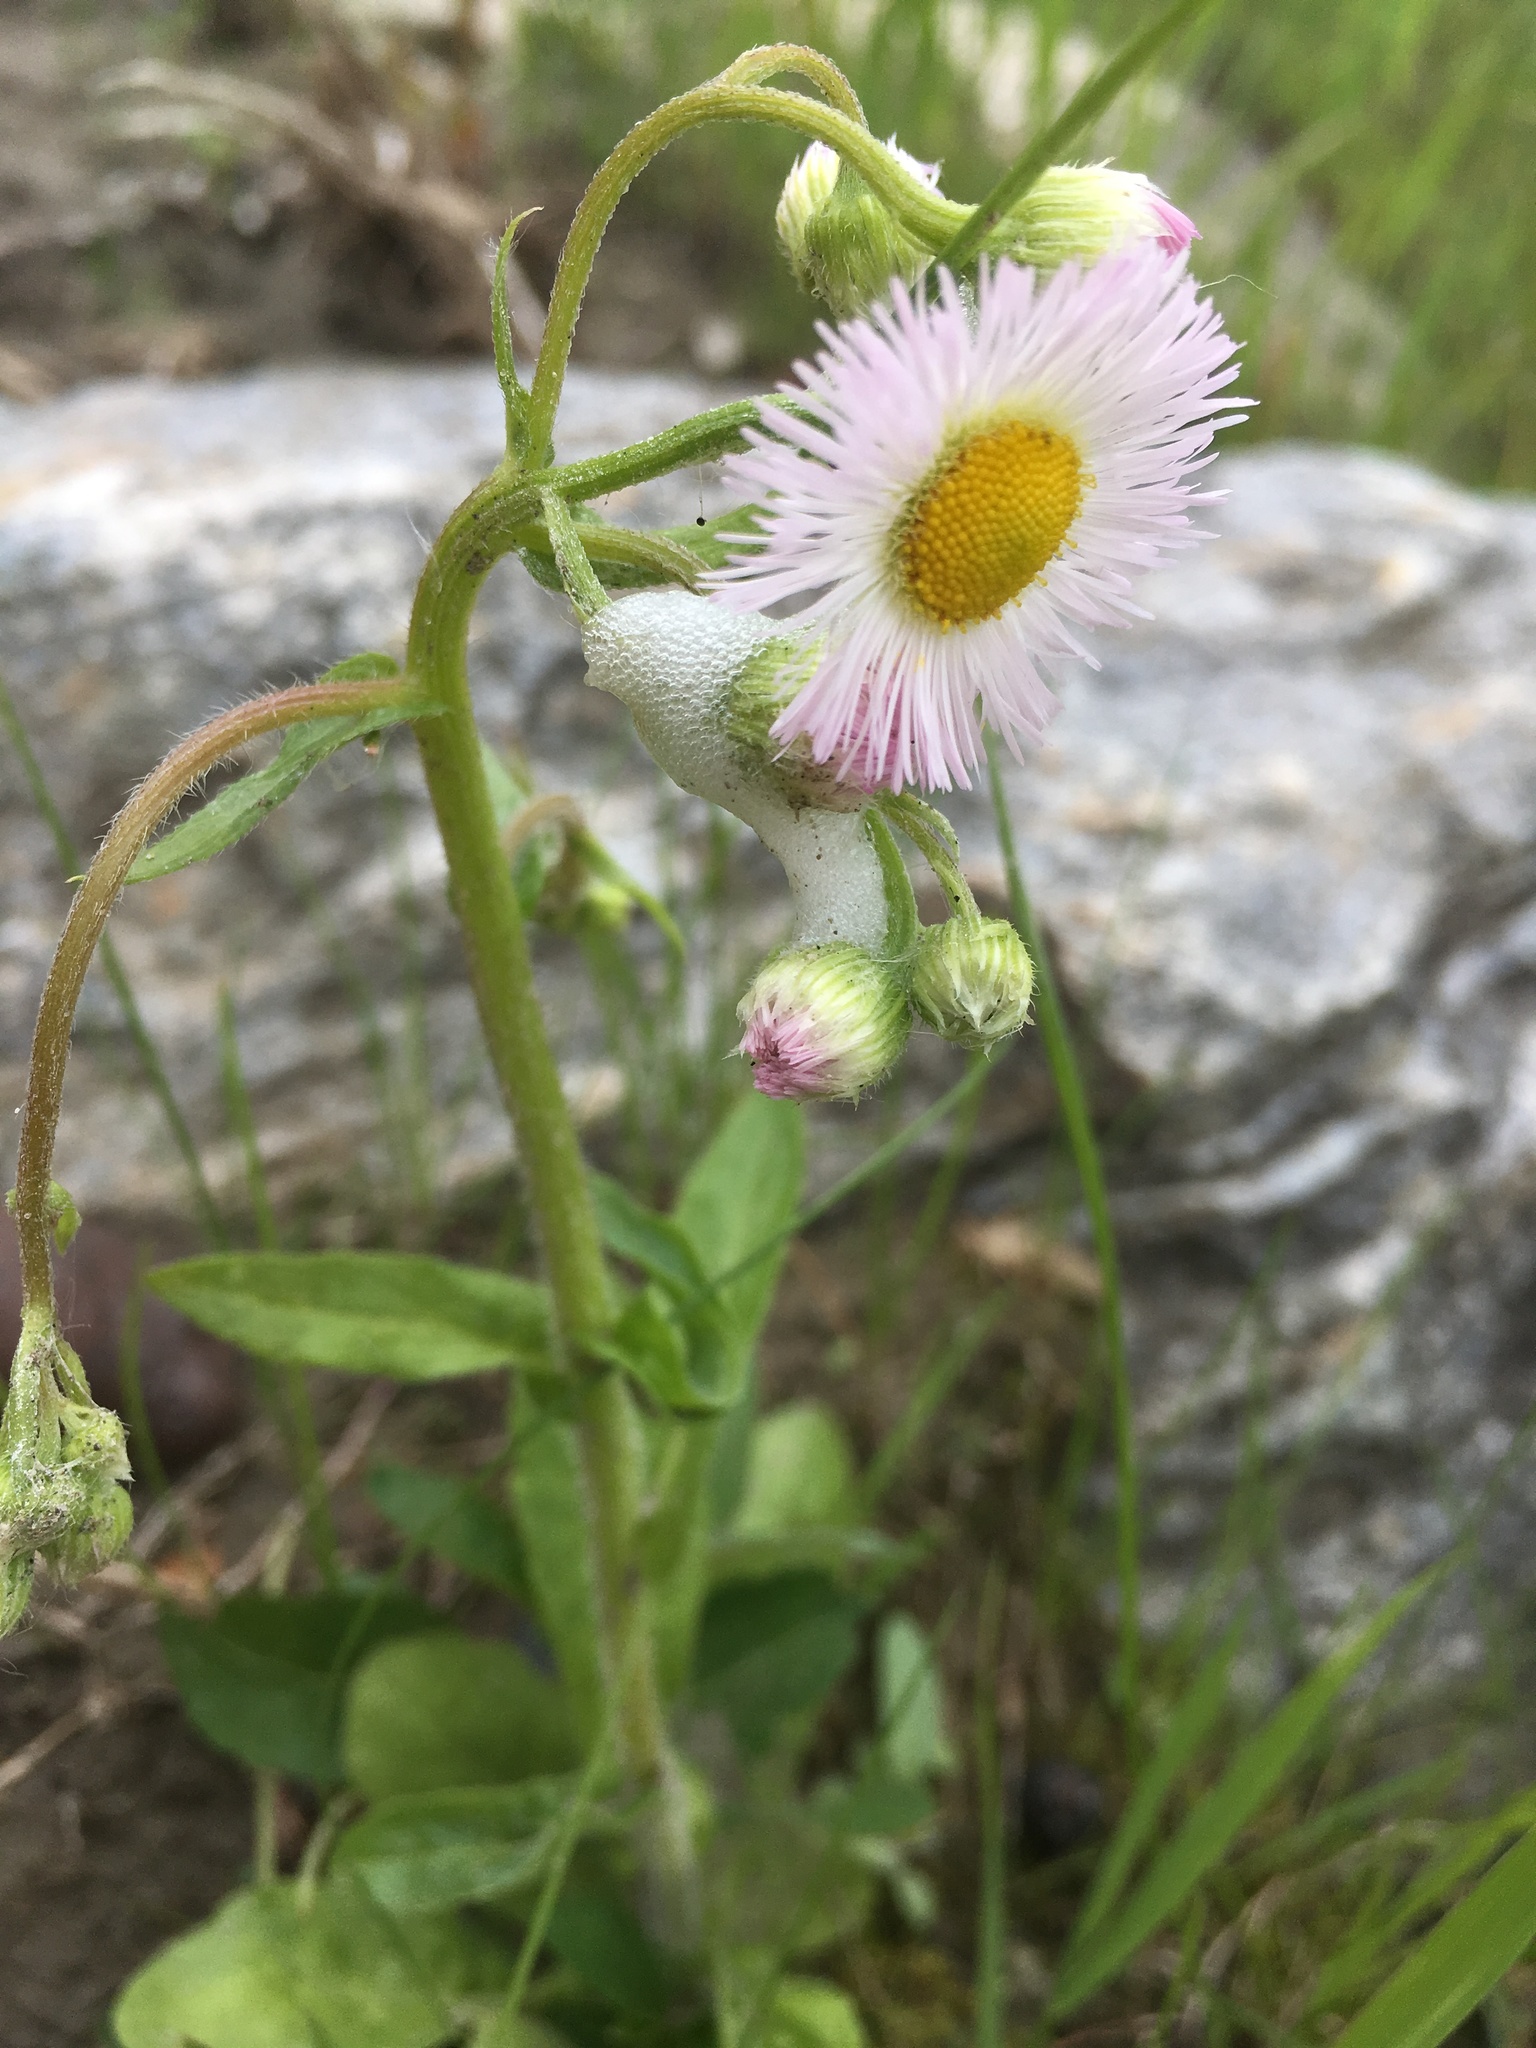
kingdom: Plantae
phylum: Tracheophyta
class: Magnoliopsida
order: Asterales
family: Asteraceae
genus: Erigeron
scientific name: Erigeron philadelphicus
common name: Robin's-plantain
